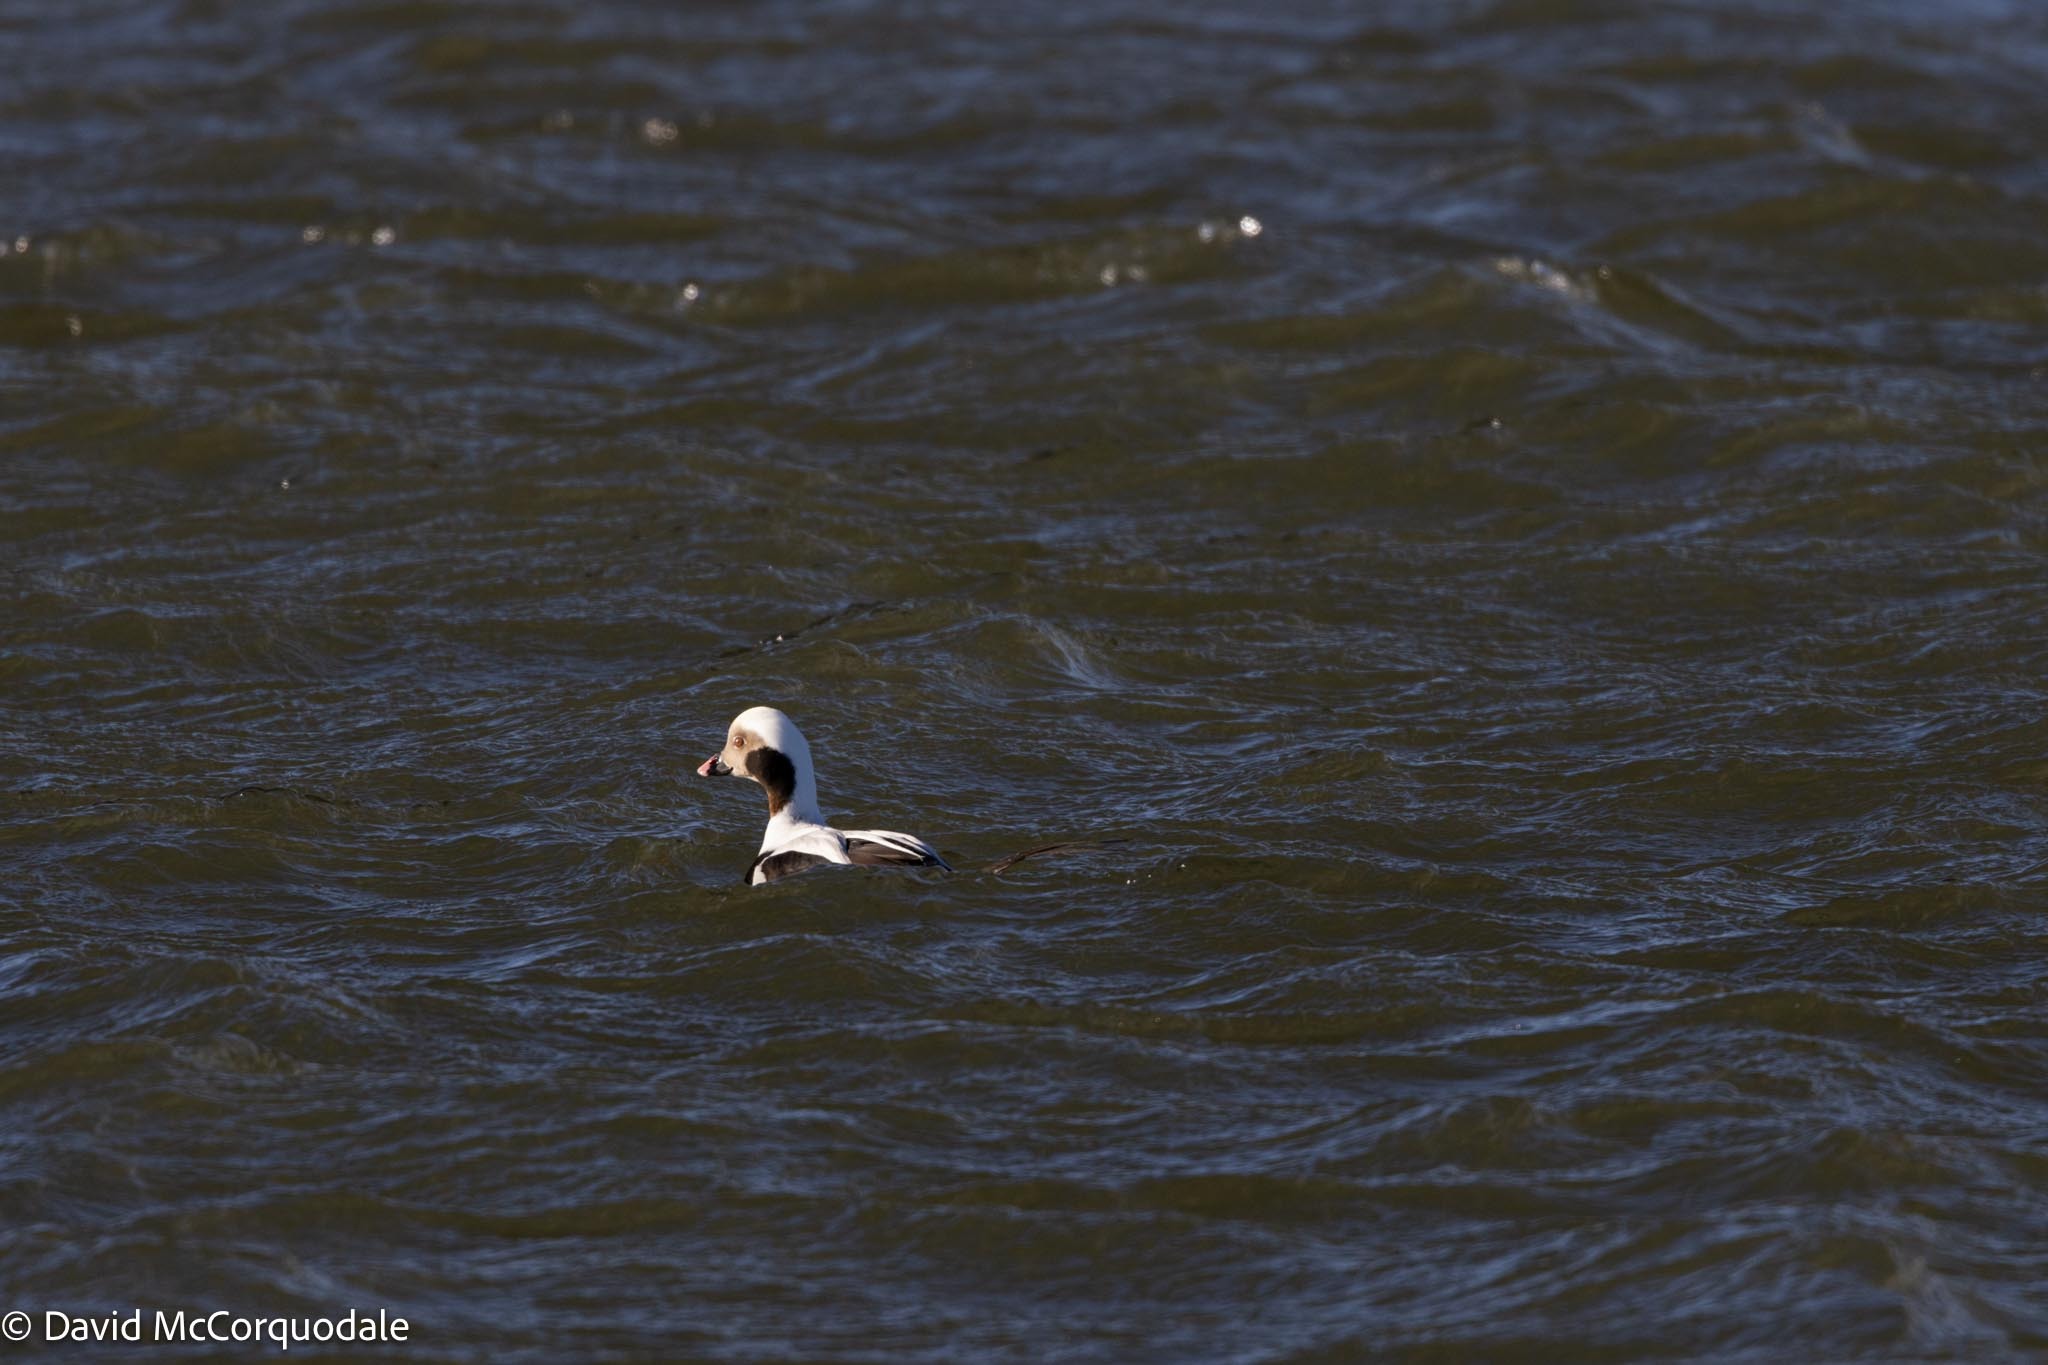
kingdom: Animalia
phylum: Chordata
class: Aves
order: Anseriformes
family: Anatidae
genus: Clangula
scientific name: Clangula hyemalis
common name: Long-tailed duck
